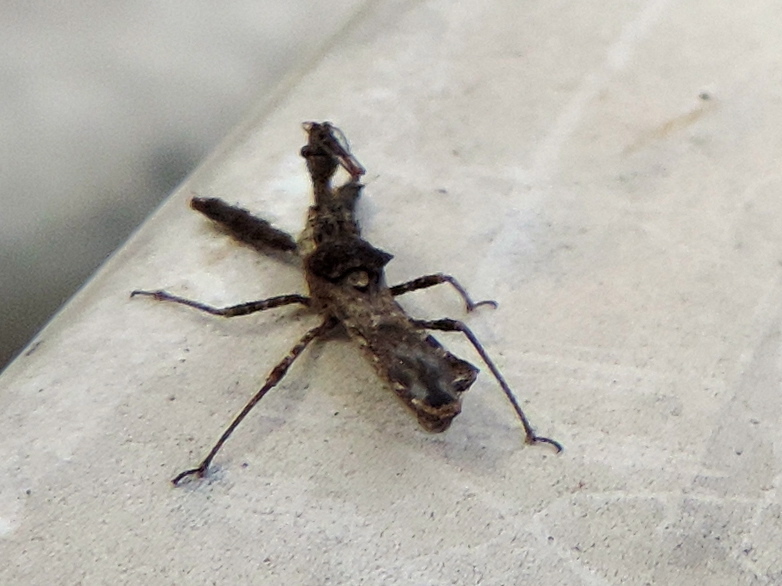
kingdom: Animalia
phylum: Arthropoda
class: Insecta
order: Hemiptera
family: Reduviidae
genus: Sinea
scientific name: Sinea
